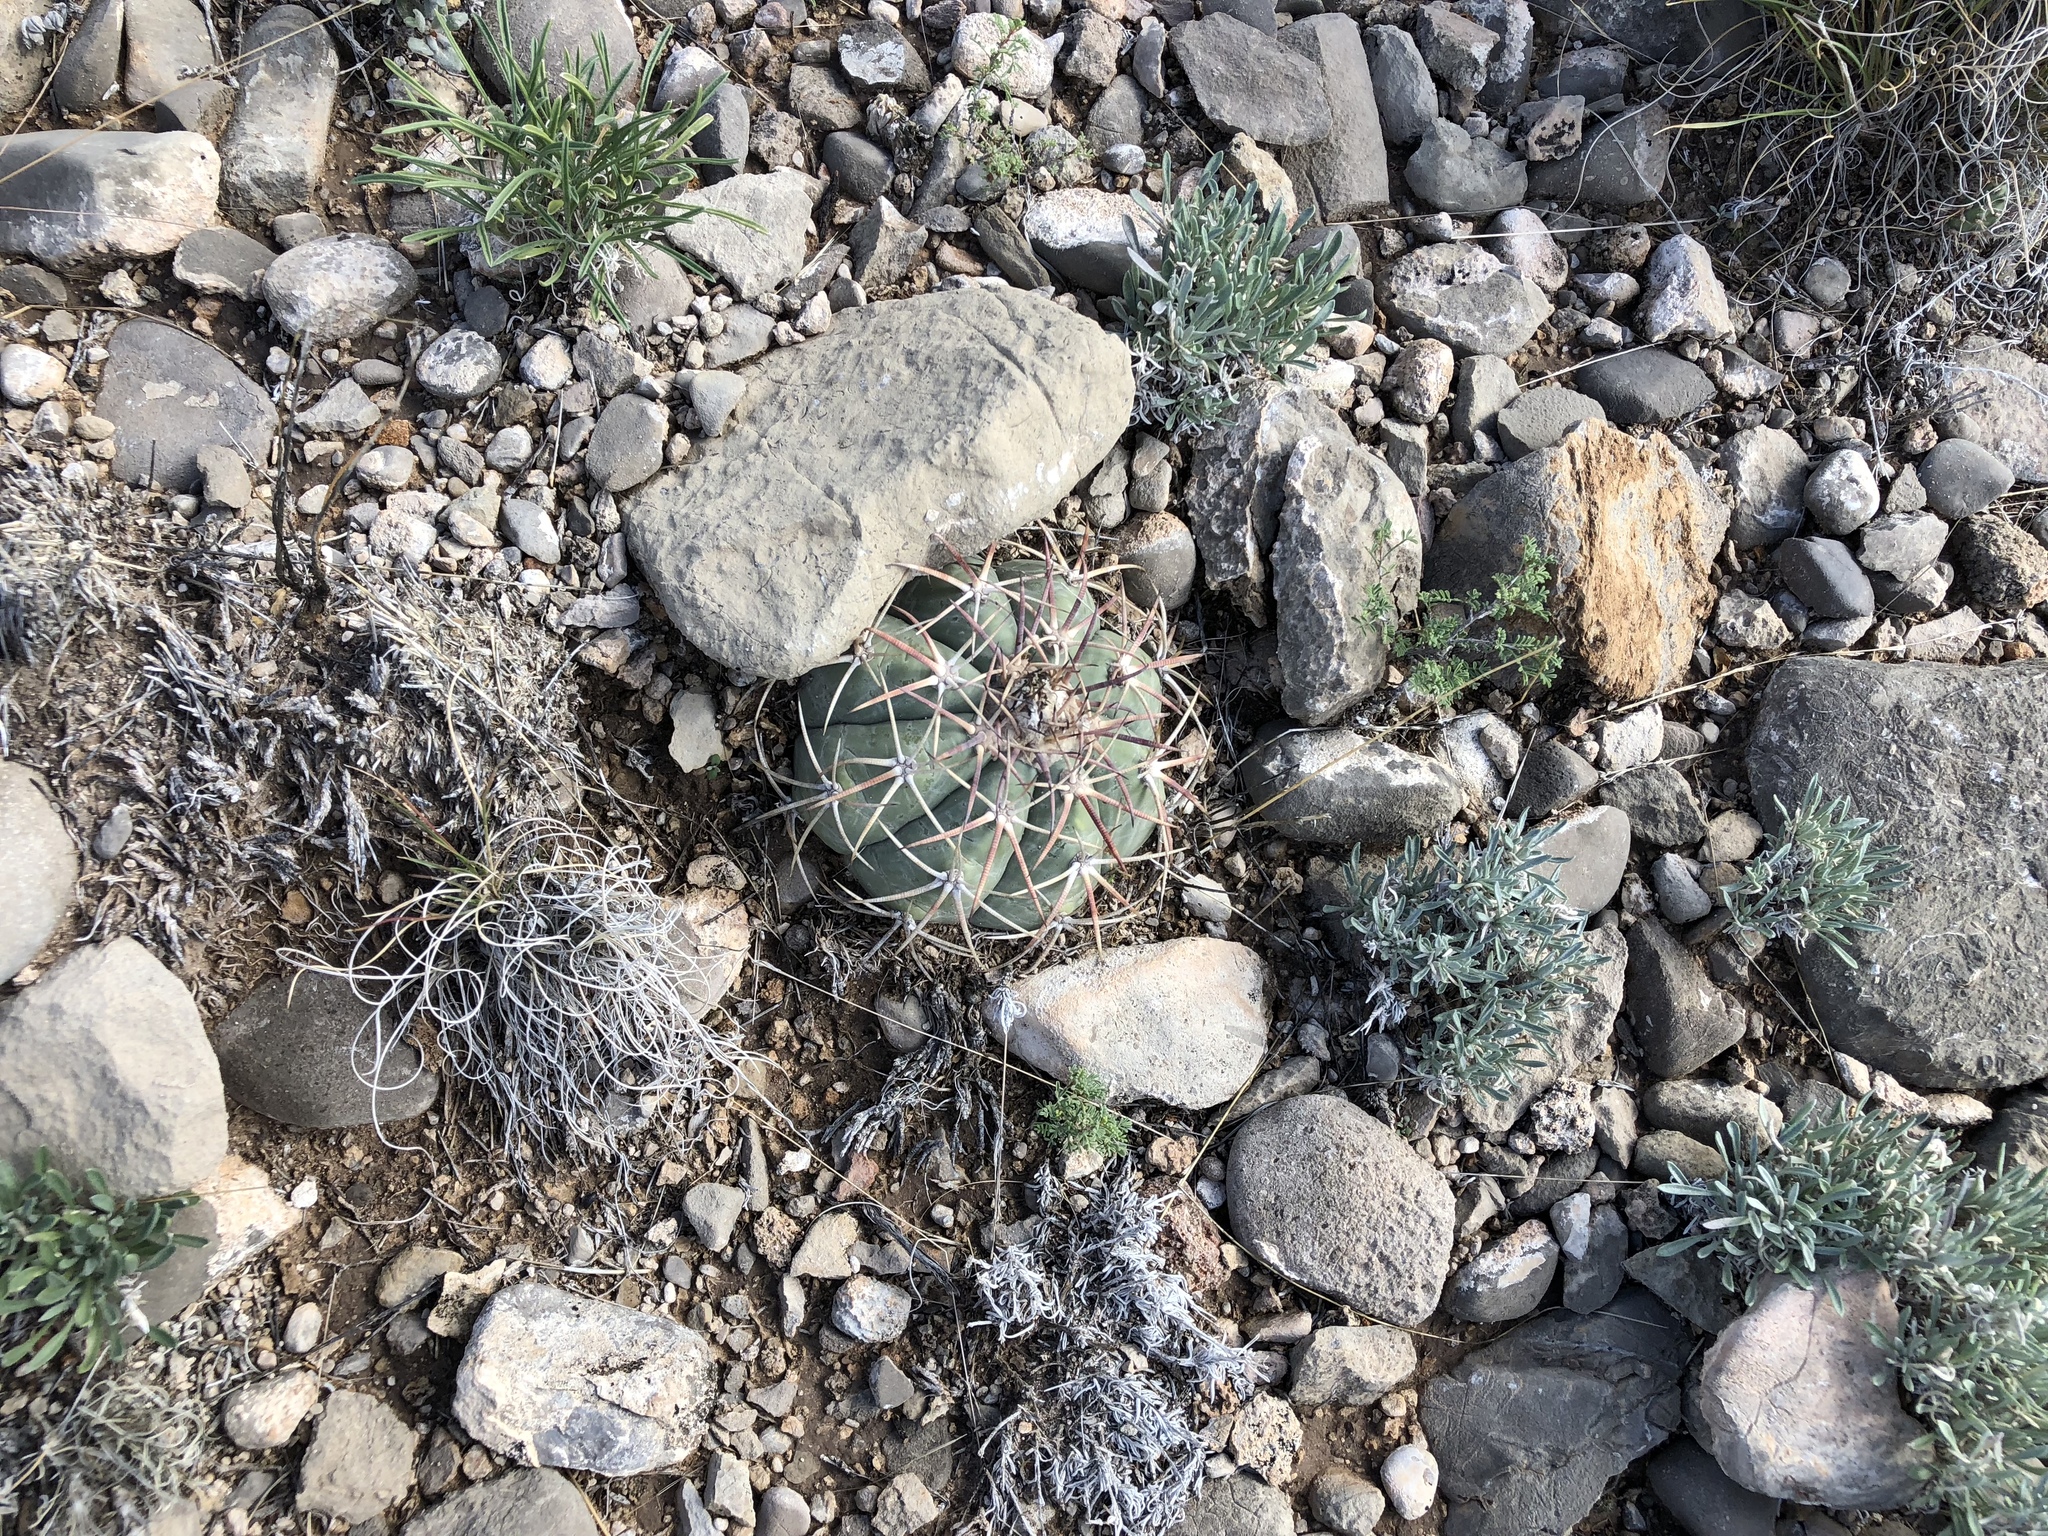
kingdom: Plantae
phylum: Tracheophyta
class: Magnoliopsida
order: Caryophyllales
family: Cactaceae
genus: Echinocactus
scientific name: Echinocactus horizonthalonius
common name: Devilshead
